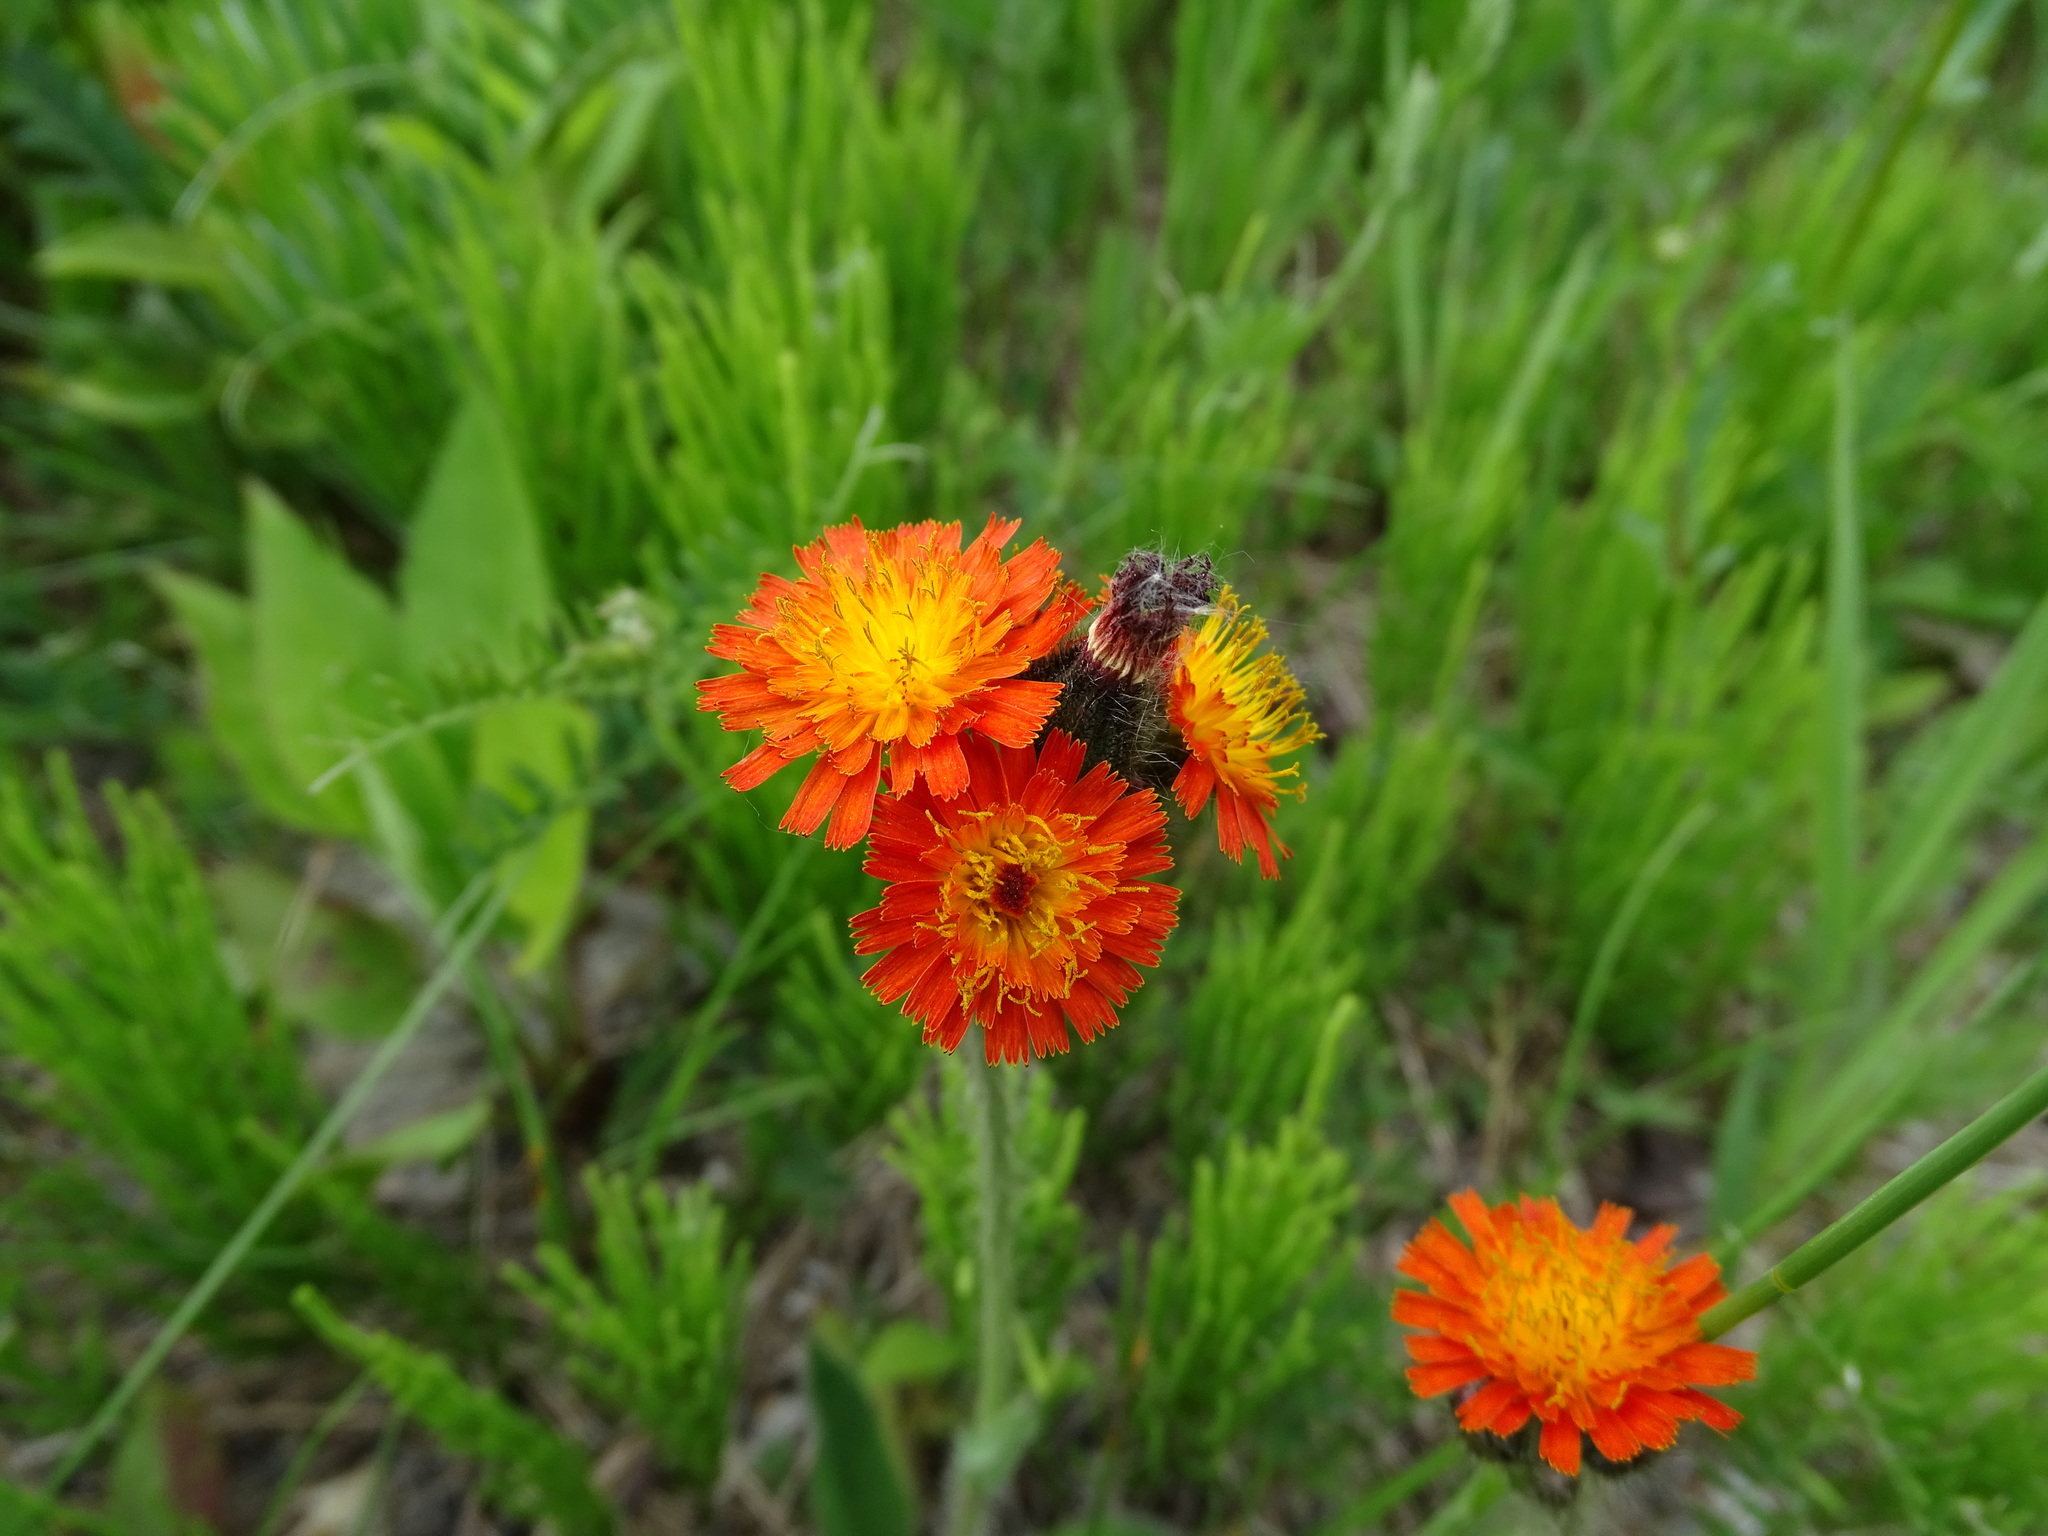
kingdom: Plantae
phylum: Tracheophyta
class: Magnoliopsida
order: Asterales
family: Asteraceae
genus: Pilosella
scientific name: Pilosella aurantiaca
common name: Fox-and-cubs
